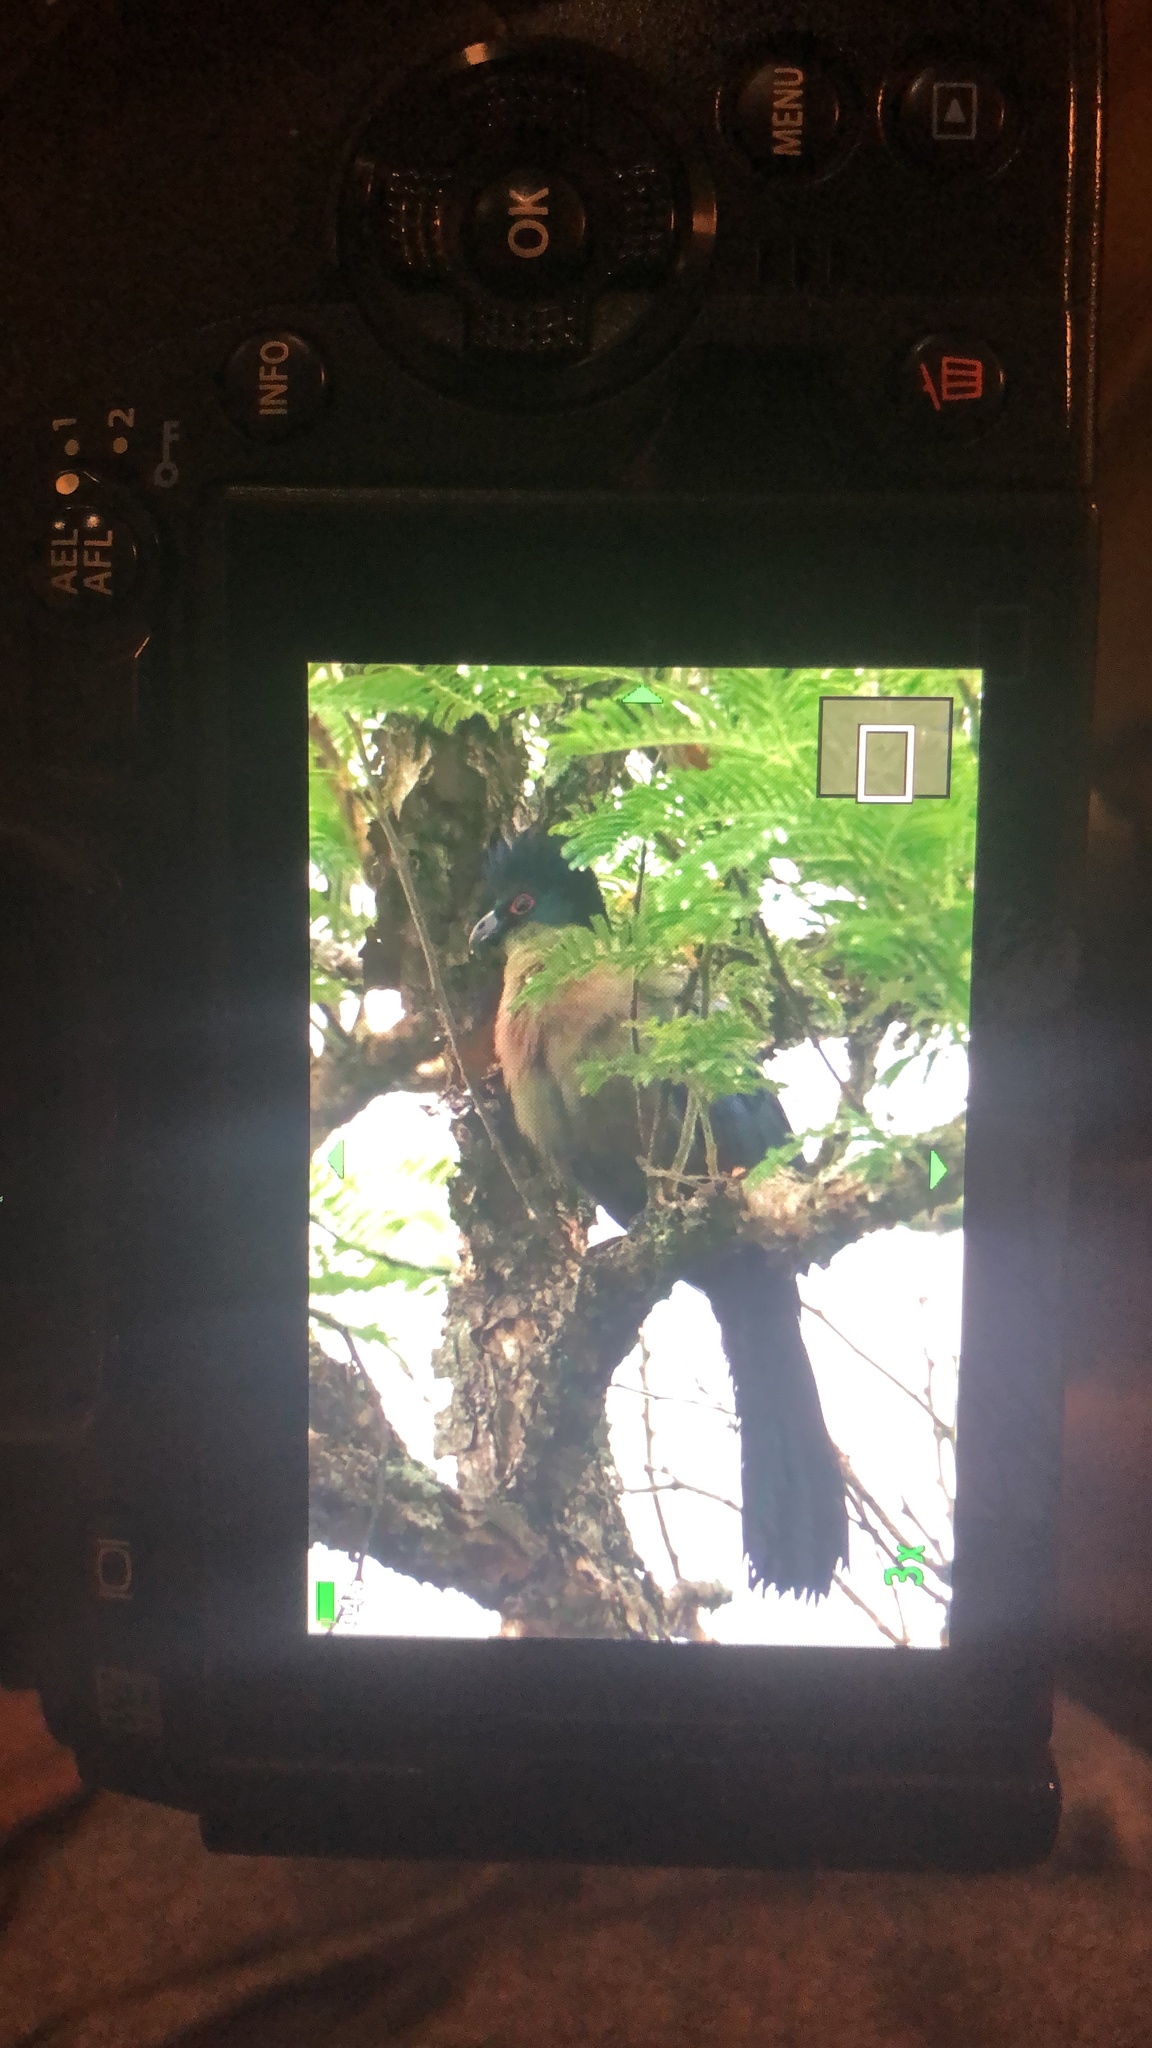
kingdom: Animalia
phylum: Chordata
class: Aves
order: Musophagiformes
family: Musophagidae
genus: Tauraco
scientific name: Tauraco porphyreolophus
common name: Purple-crested turaco
